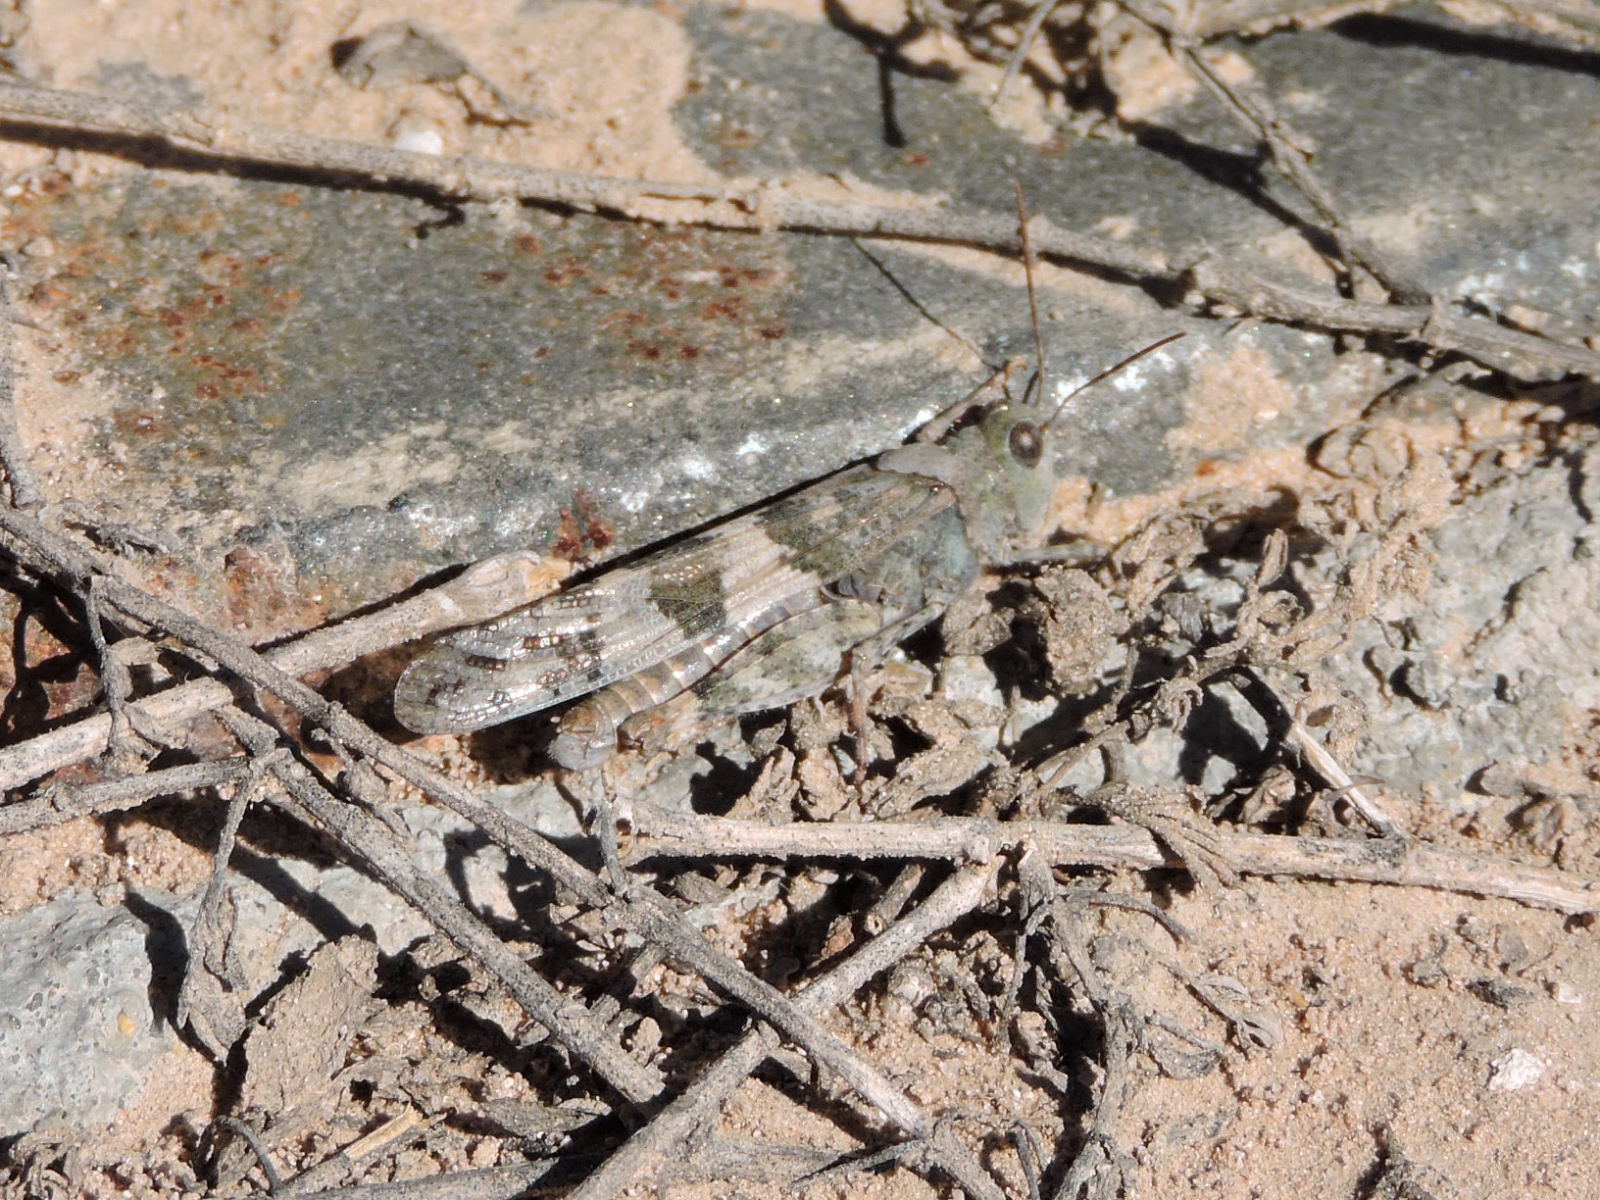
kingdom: Animalia
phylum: Arthropoda
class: Insecta
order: Orthoptera
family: Acrididae
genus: Trimerotropis
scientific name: Trimerotropis pallidipennis
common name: Pallid-winged grasshopper
